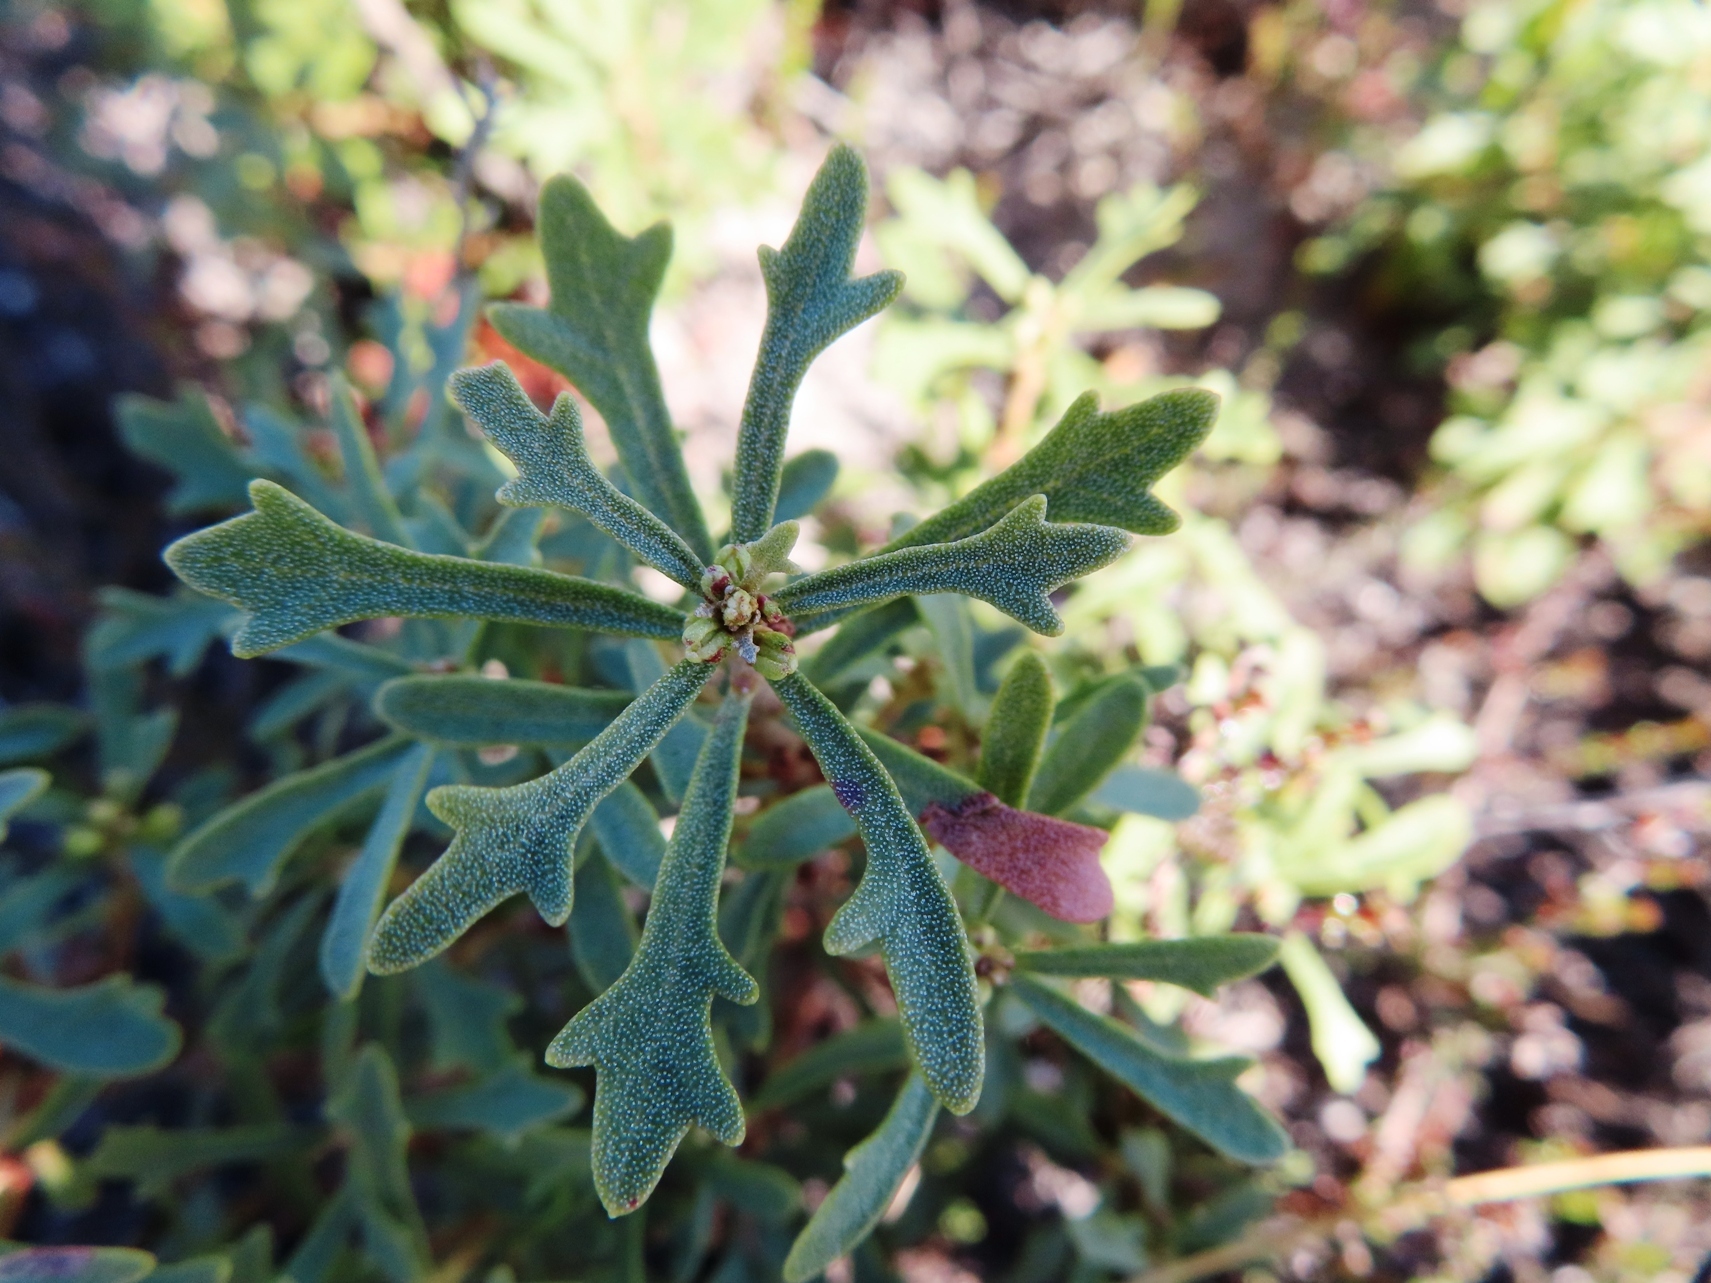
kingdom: Plantae
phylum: Tracheophyta
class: Magnoliopsida
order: Fagales
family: Myricaceae
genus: Morella
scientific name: Morella quercifolia
